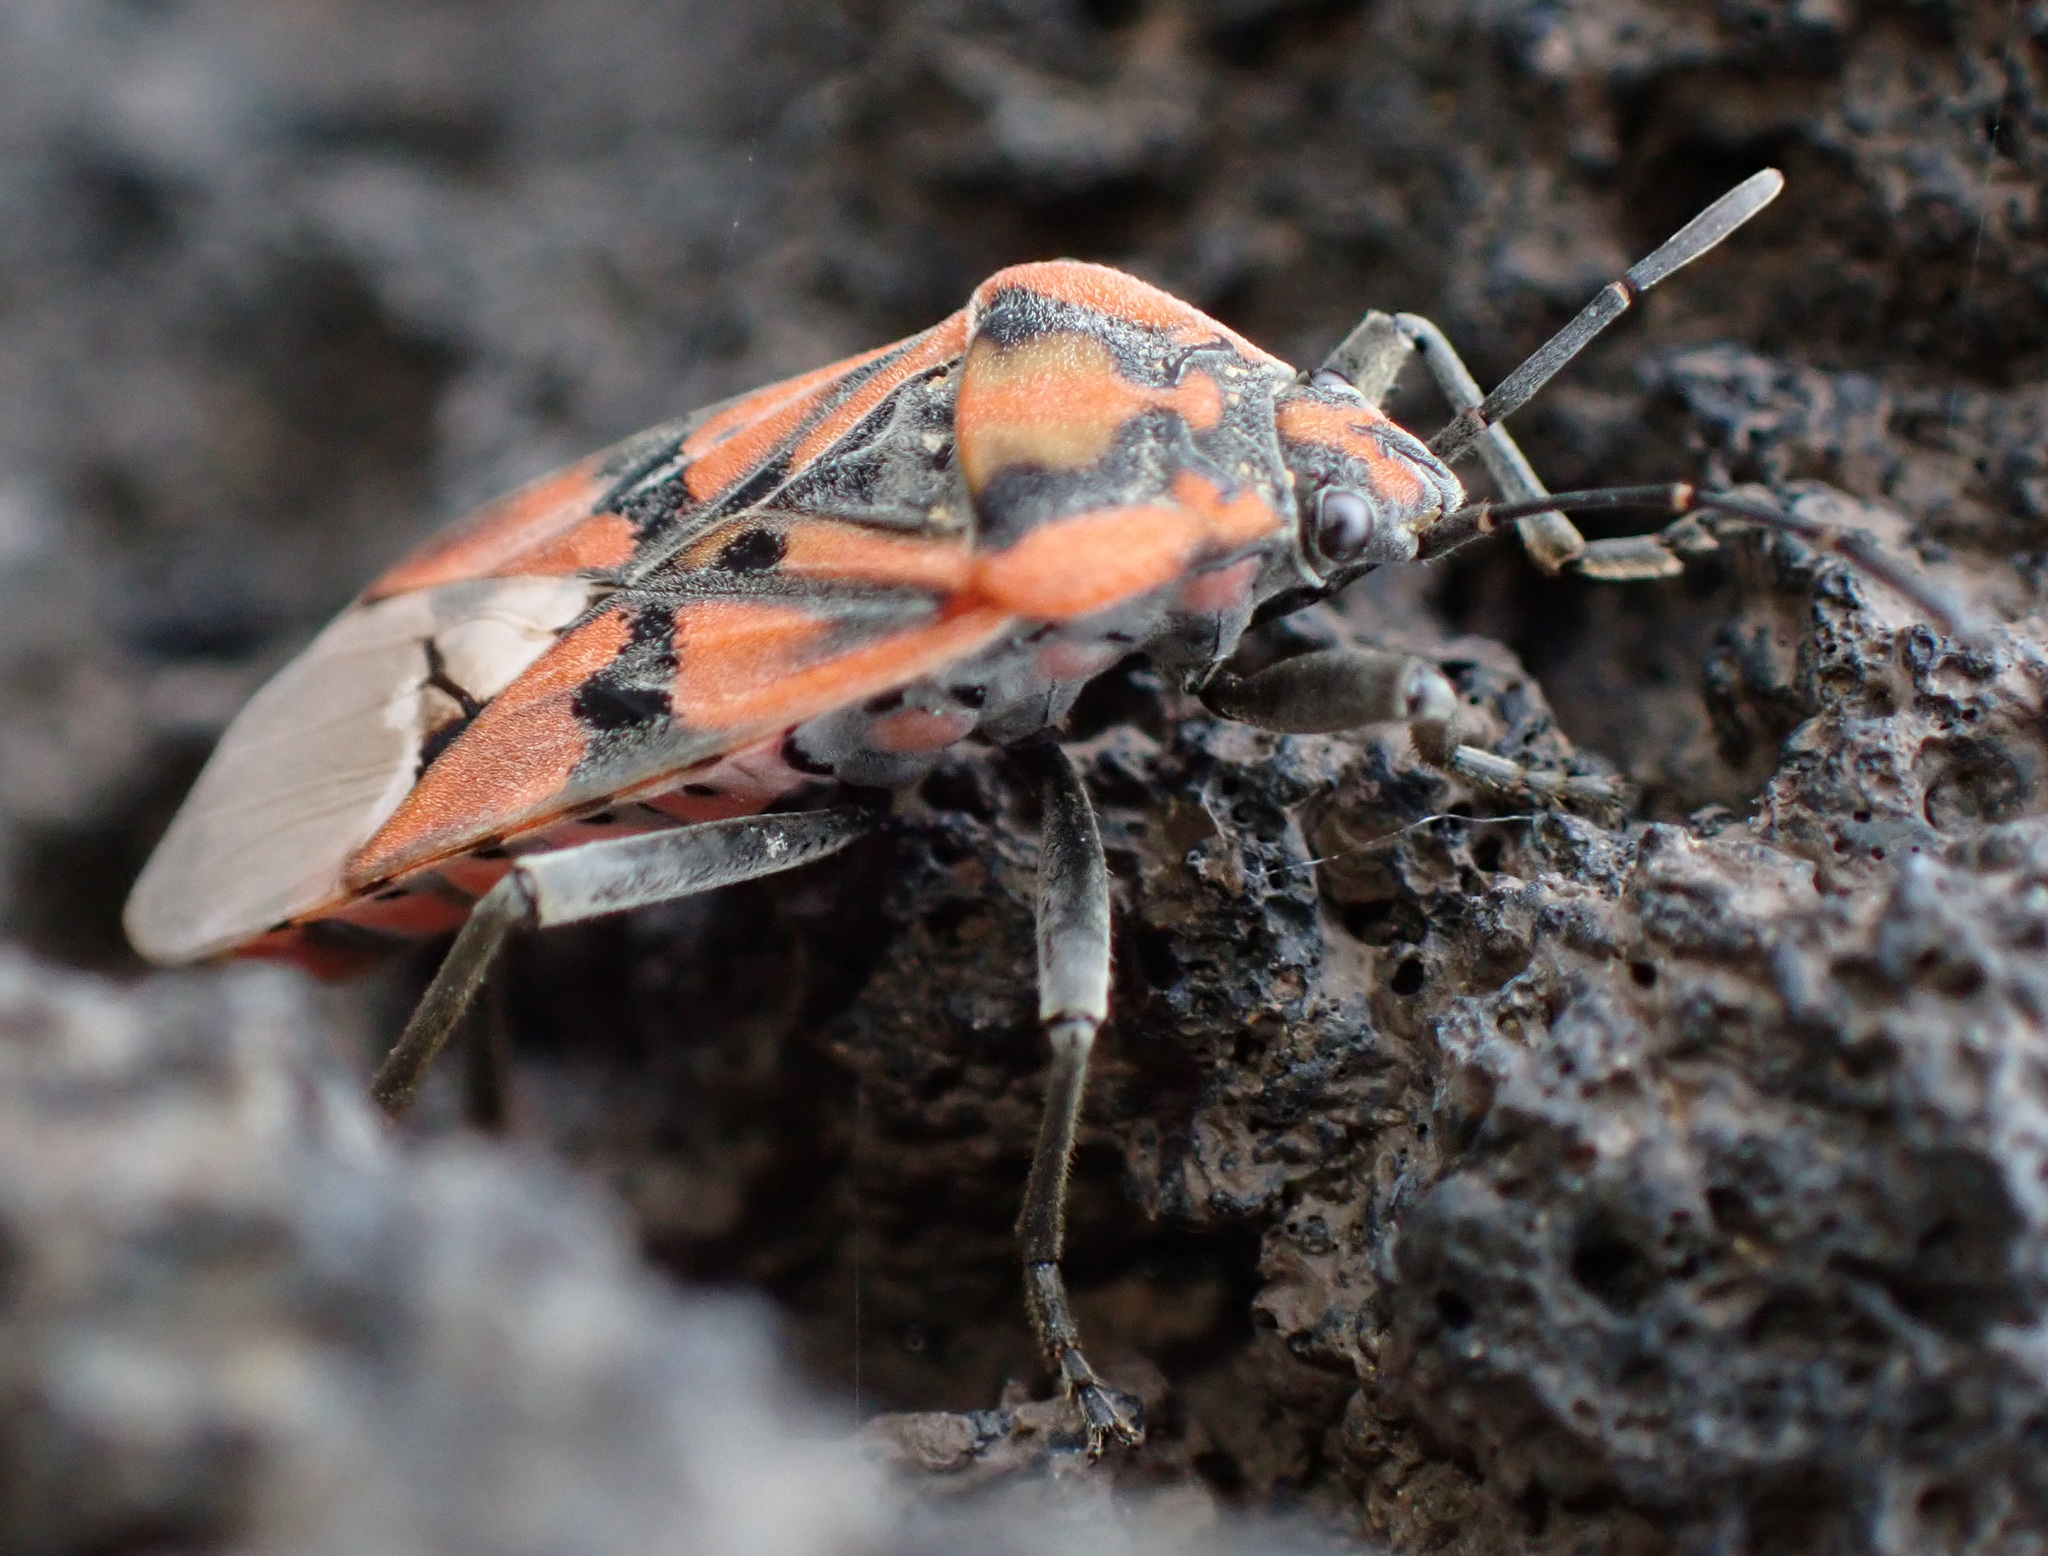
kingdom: Animalia
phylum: Arthropoda
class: Insecta
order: Hemiptera
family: Lygaeidae
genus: Spilostethus
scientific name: Spilostethus pandurus
